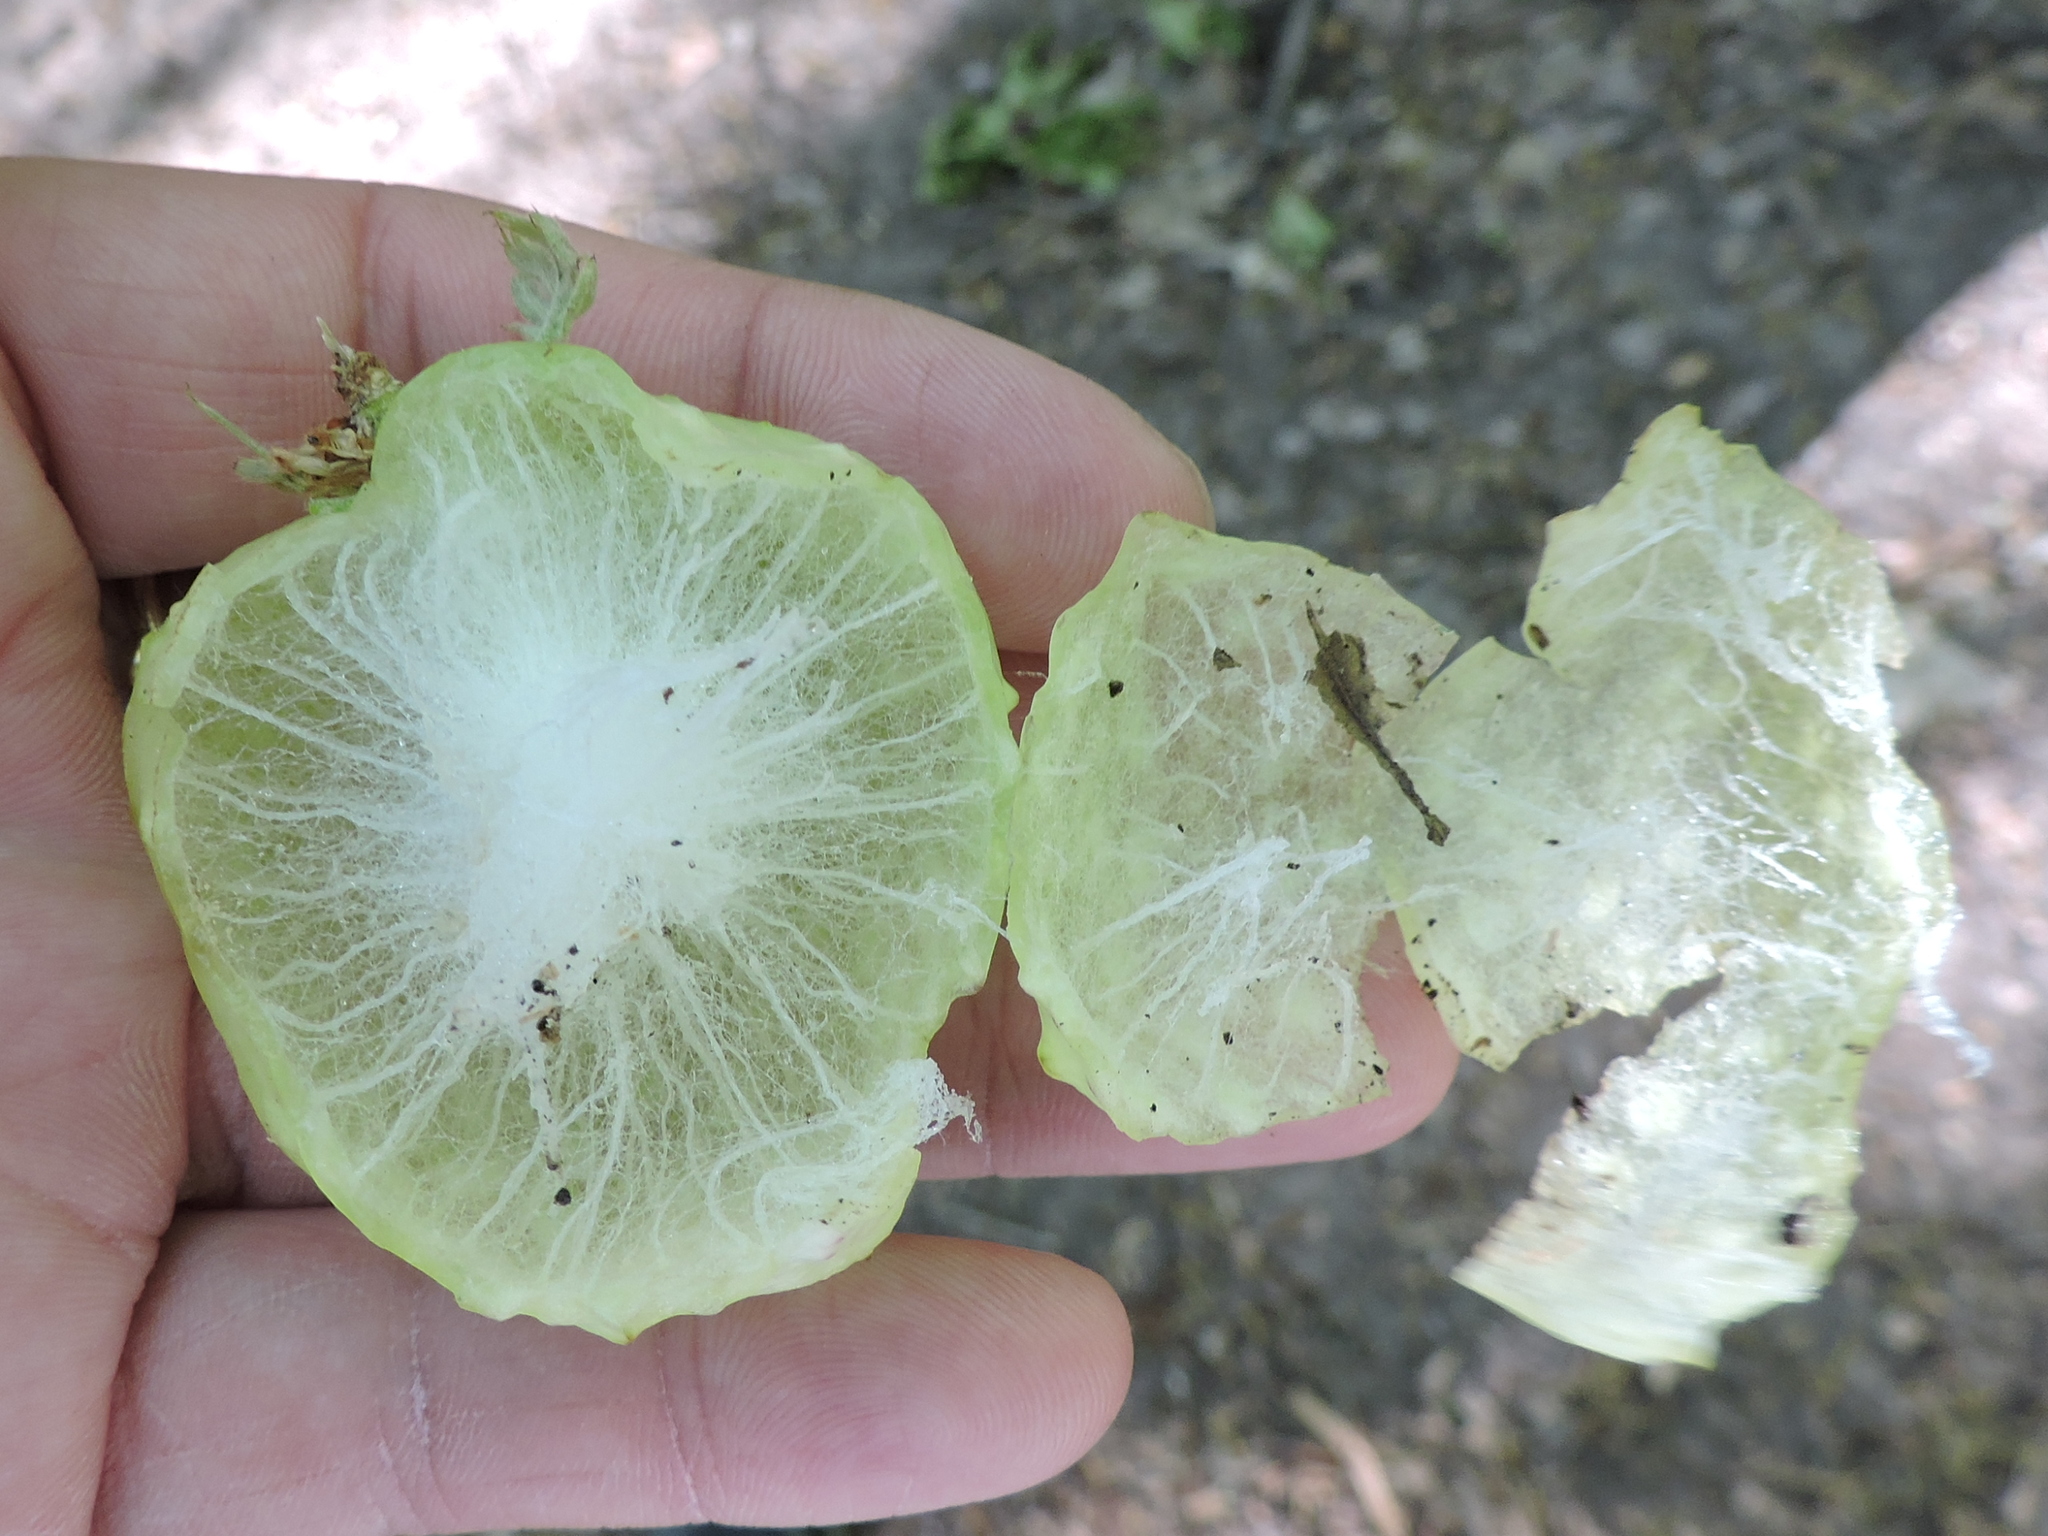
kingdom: Animalia
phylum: Arthropoda
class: Insecta
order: Hymenoptera
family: Cynipidae
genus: Amphibolips
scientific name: Amphibolips
